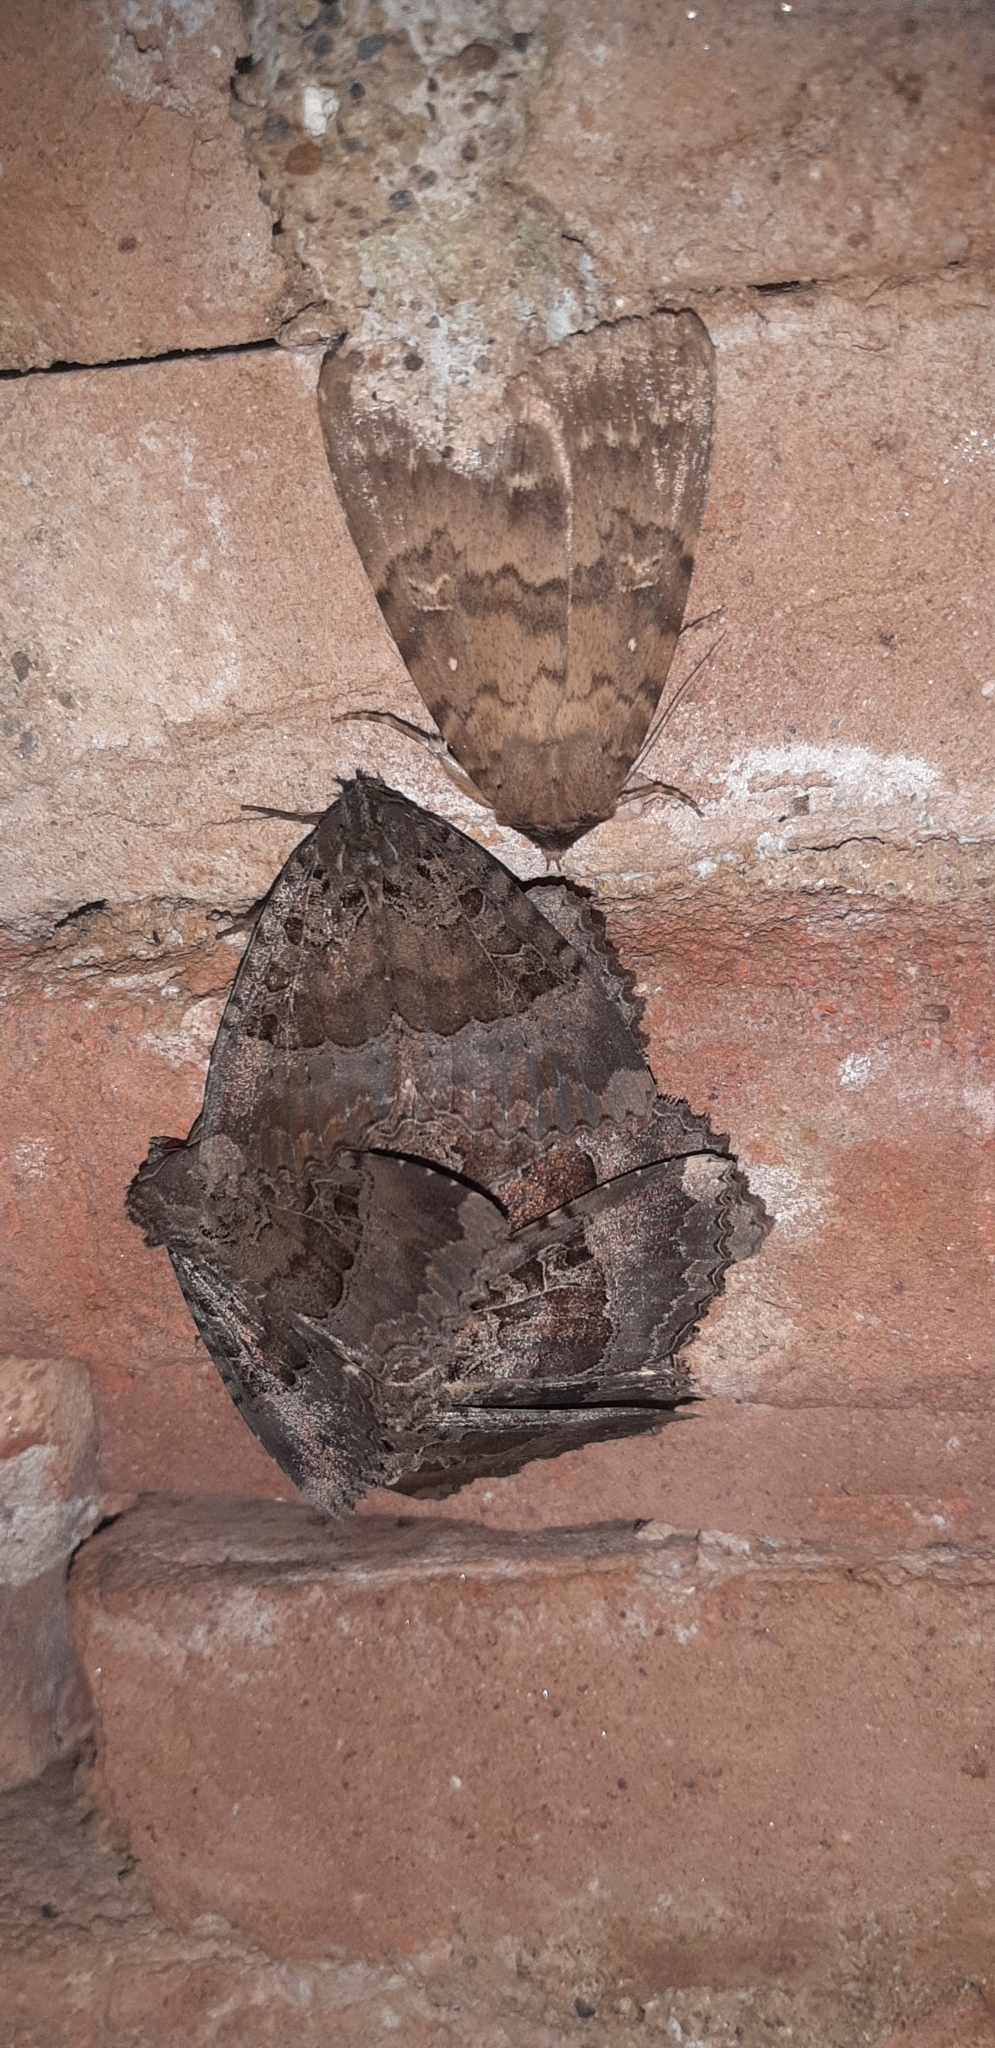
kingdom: Animalia
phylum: Arthropoda
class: Insecta
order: Lepidoptera
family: Noctuidae
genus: Mormo
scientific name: Mormo maura
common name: Old lady
